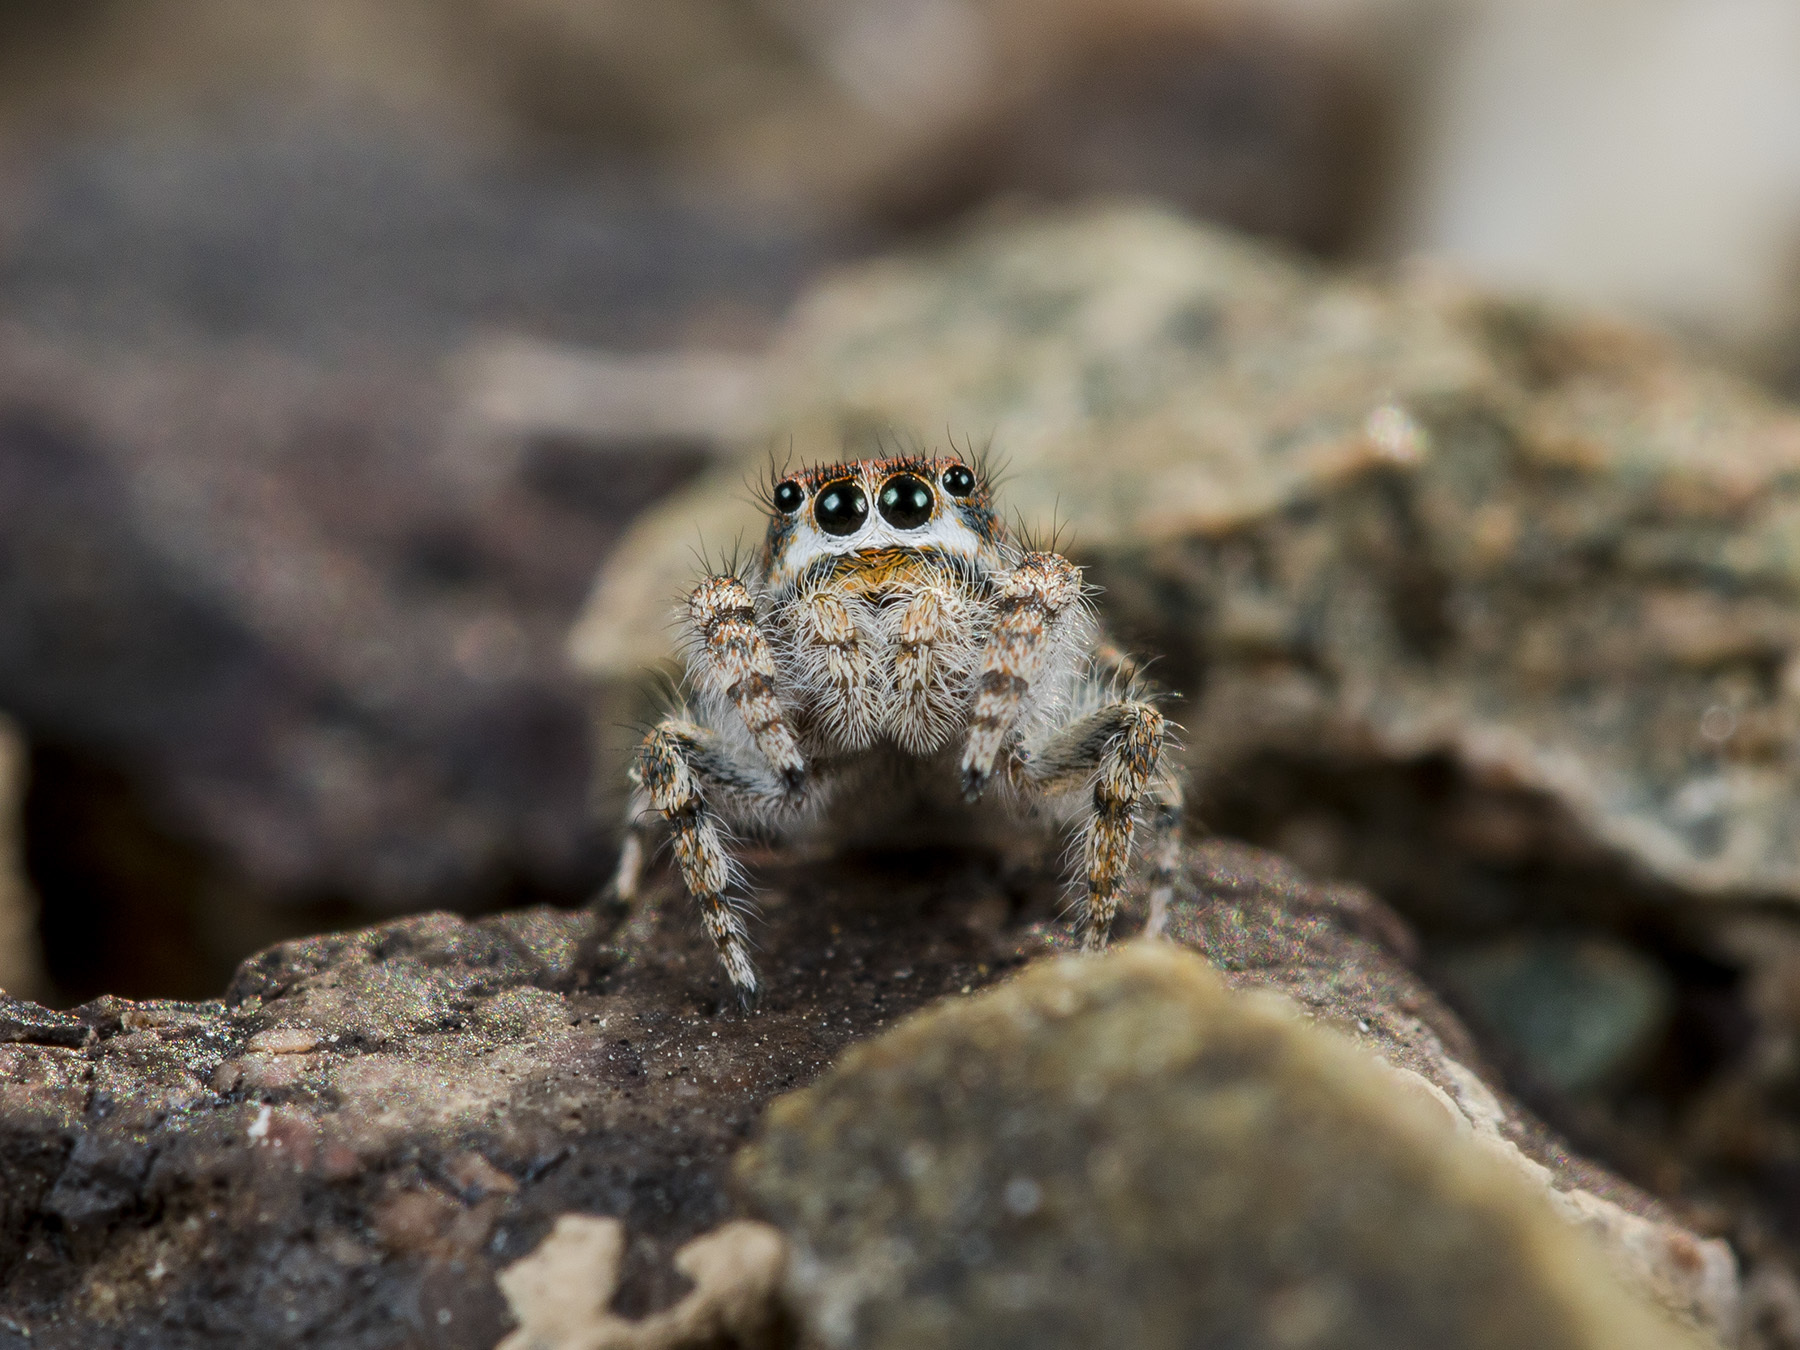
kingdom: Animalia
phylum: Arthropoda
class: Arachnida
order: Araneae
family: Salticidae
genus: Yllenus
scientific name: Yllenus zyuzini
